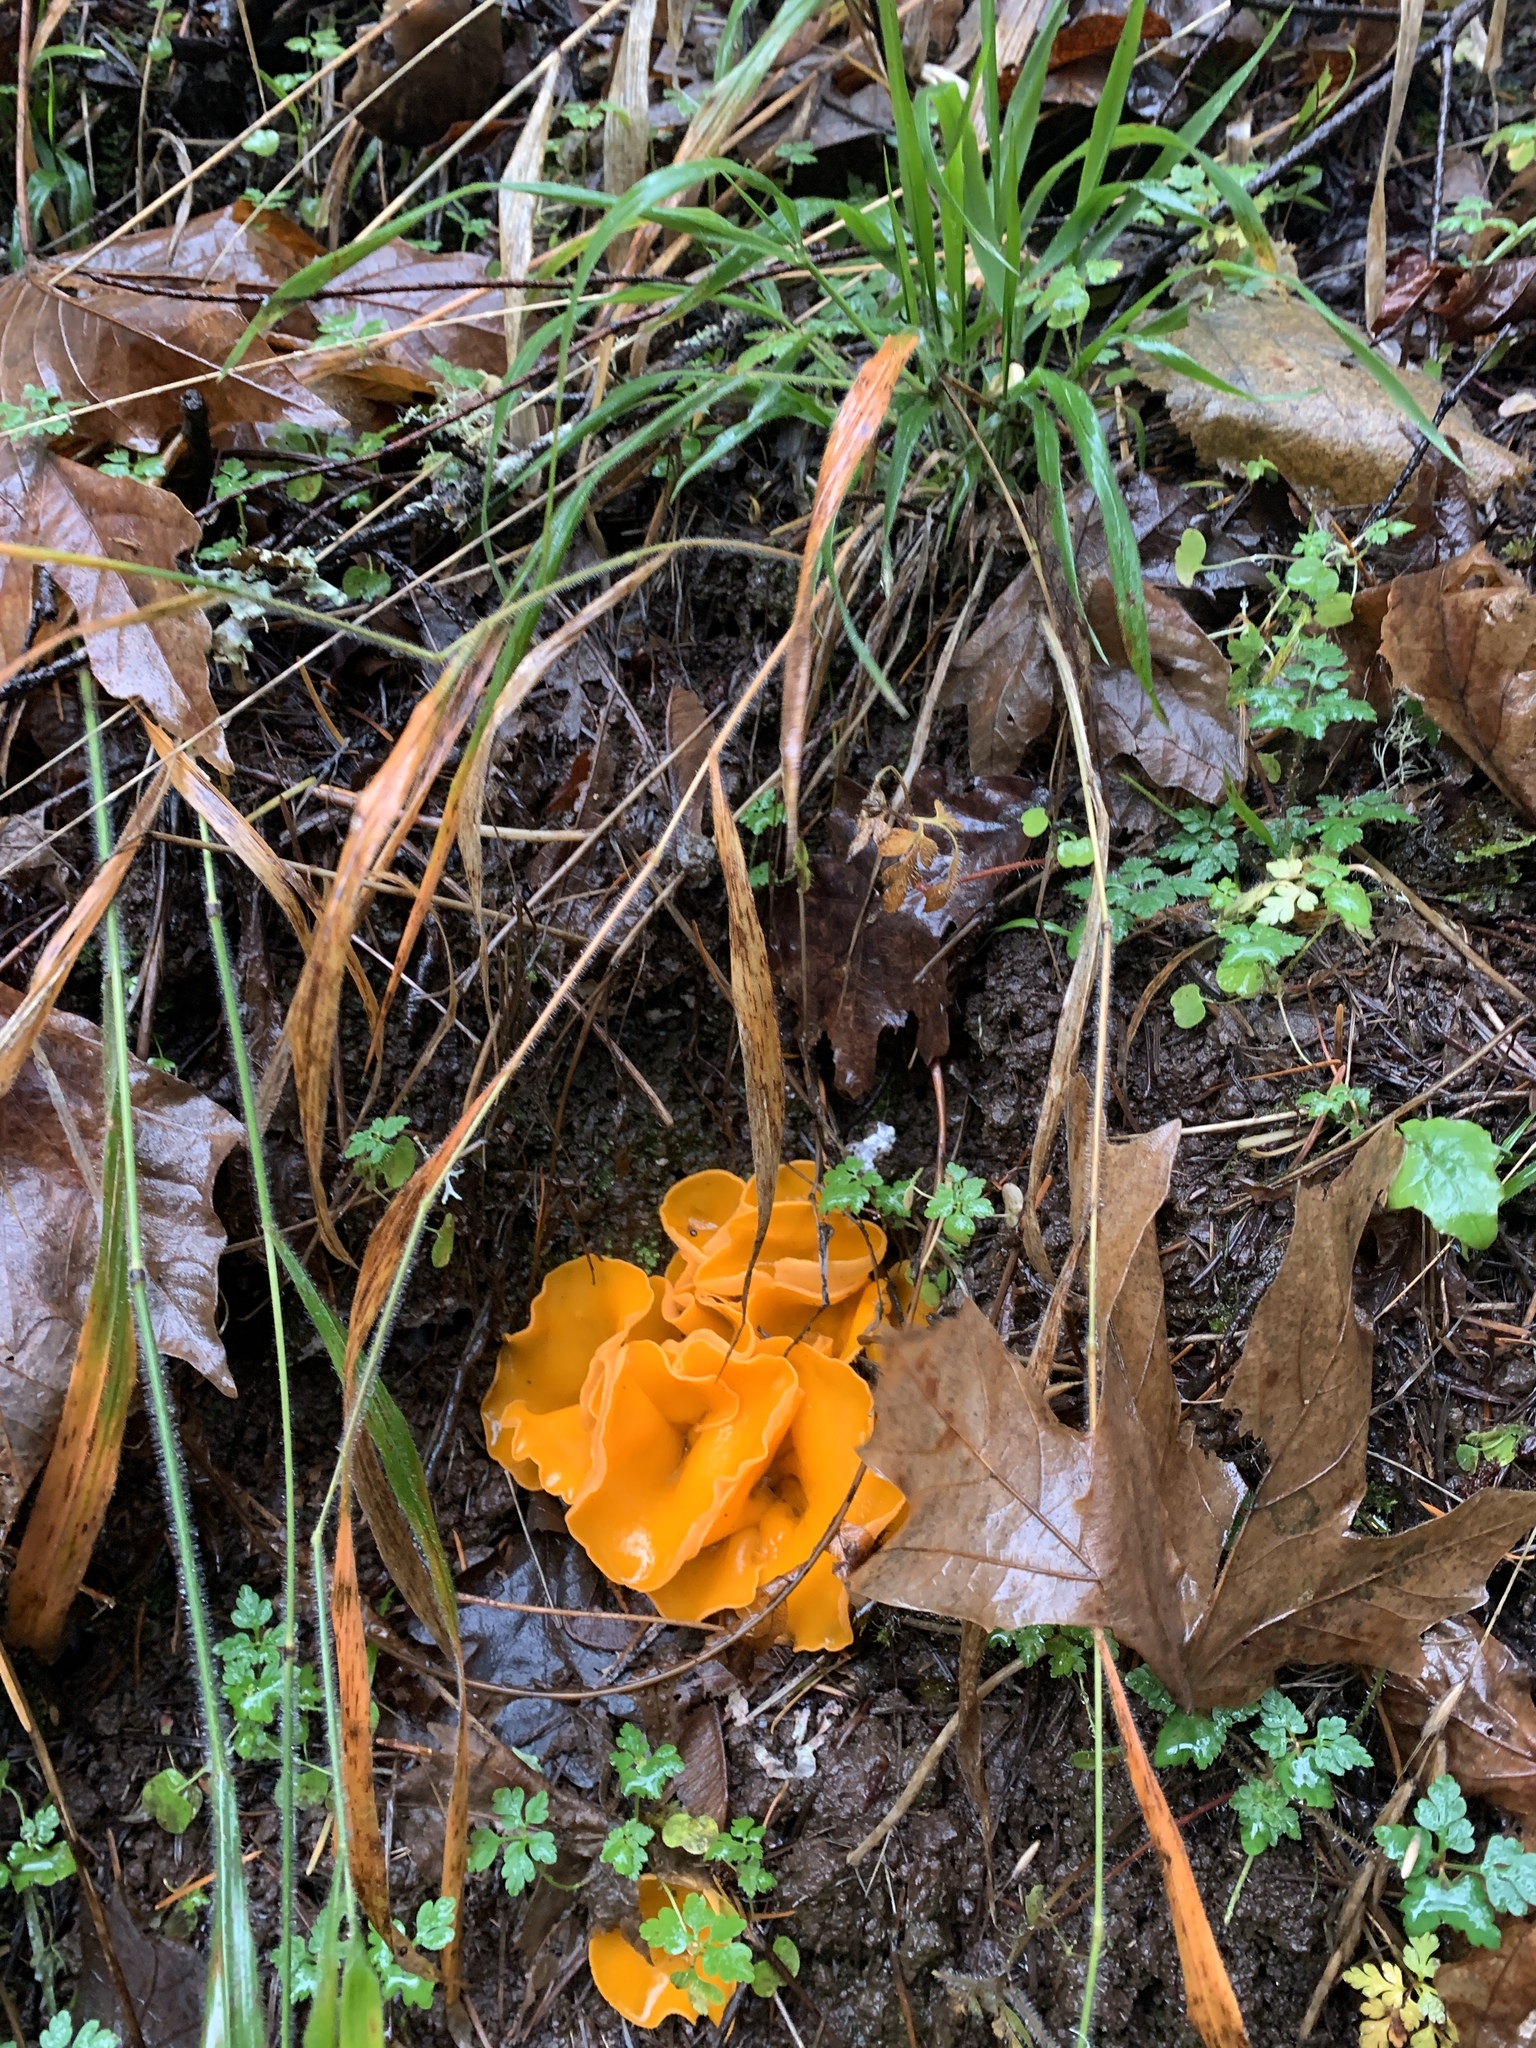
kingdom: Fungi
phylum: Ascomycota
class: Pezizomycetes
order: Pezizales
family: Pyronemataceae
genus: Aleuria
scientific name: Aleuria aurantia
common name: Orange peel fungus
